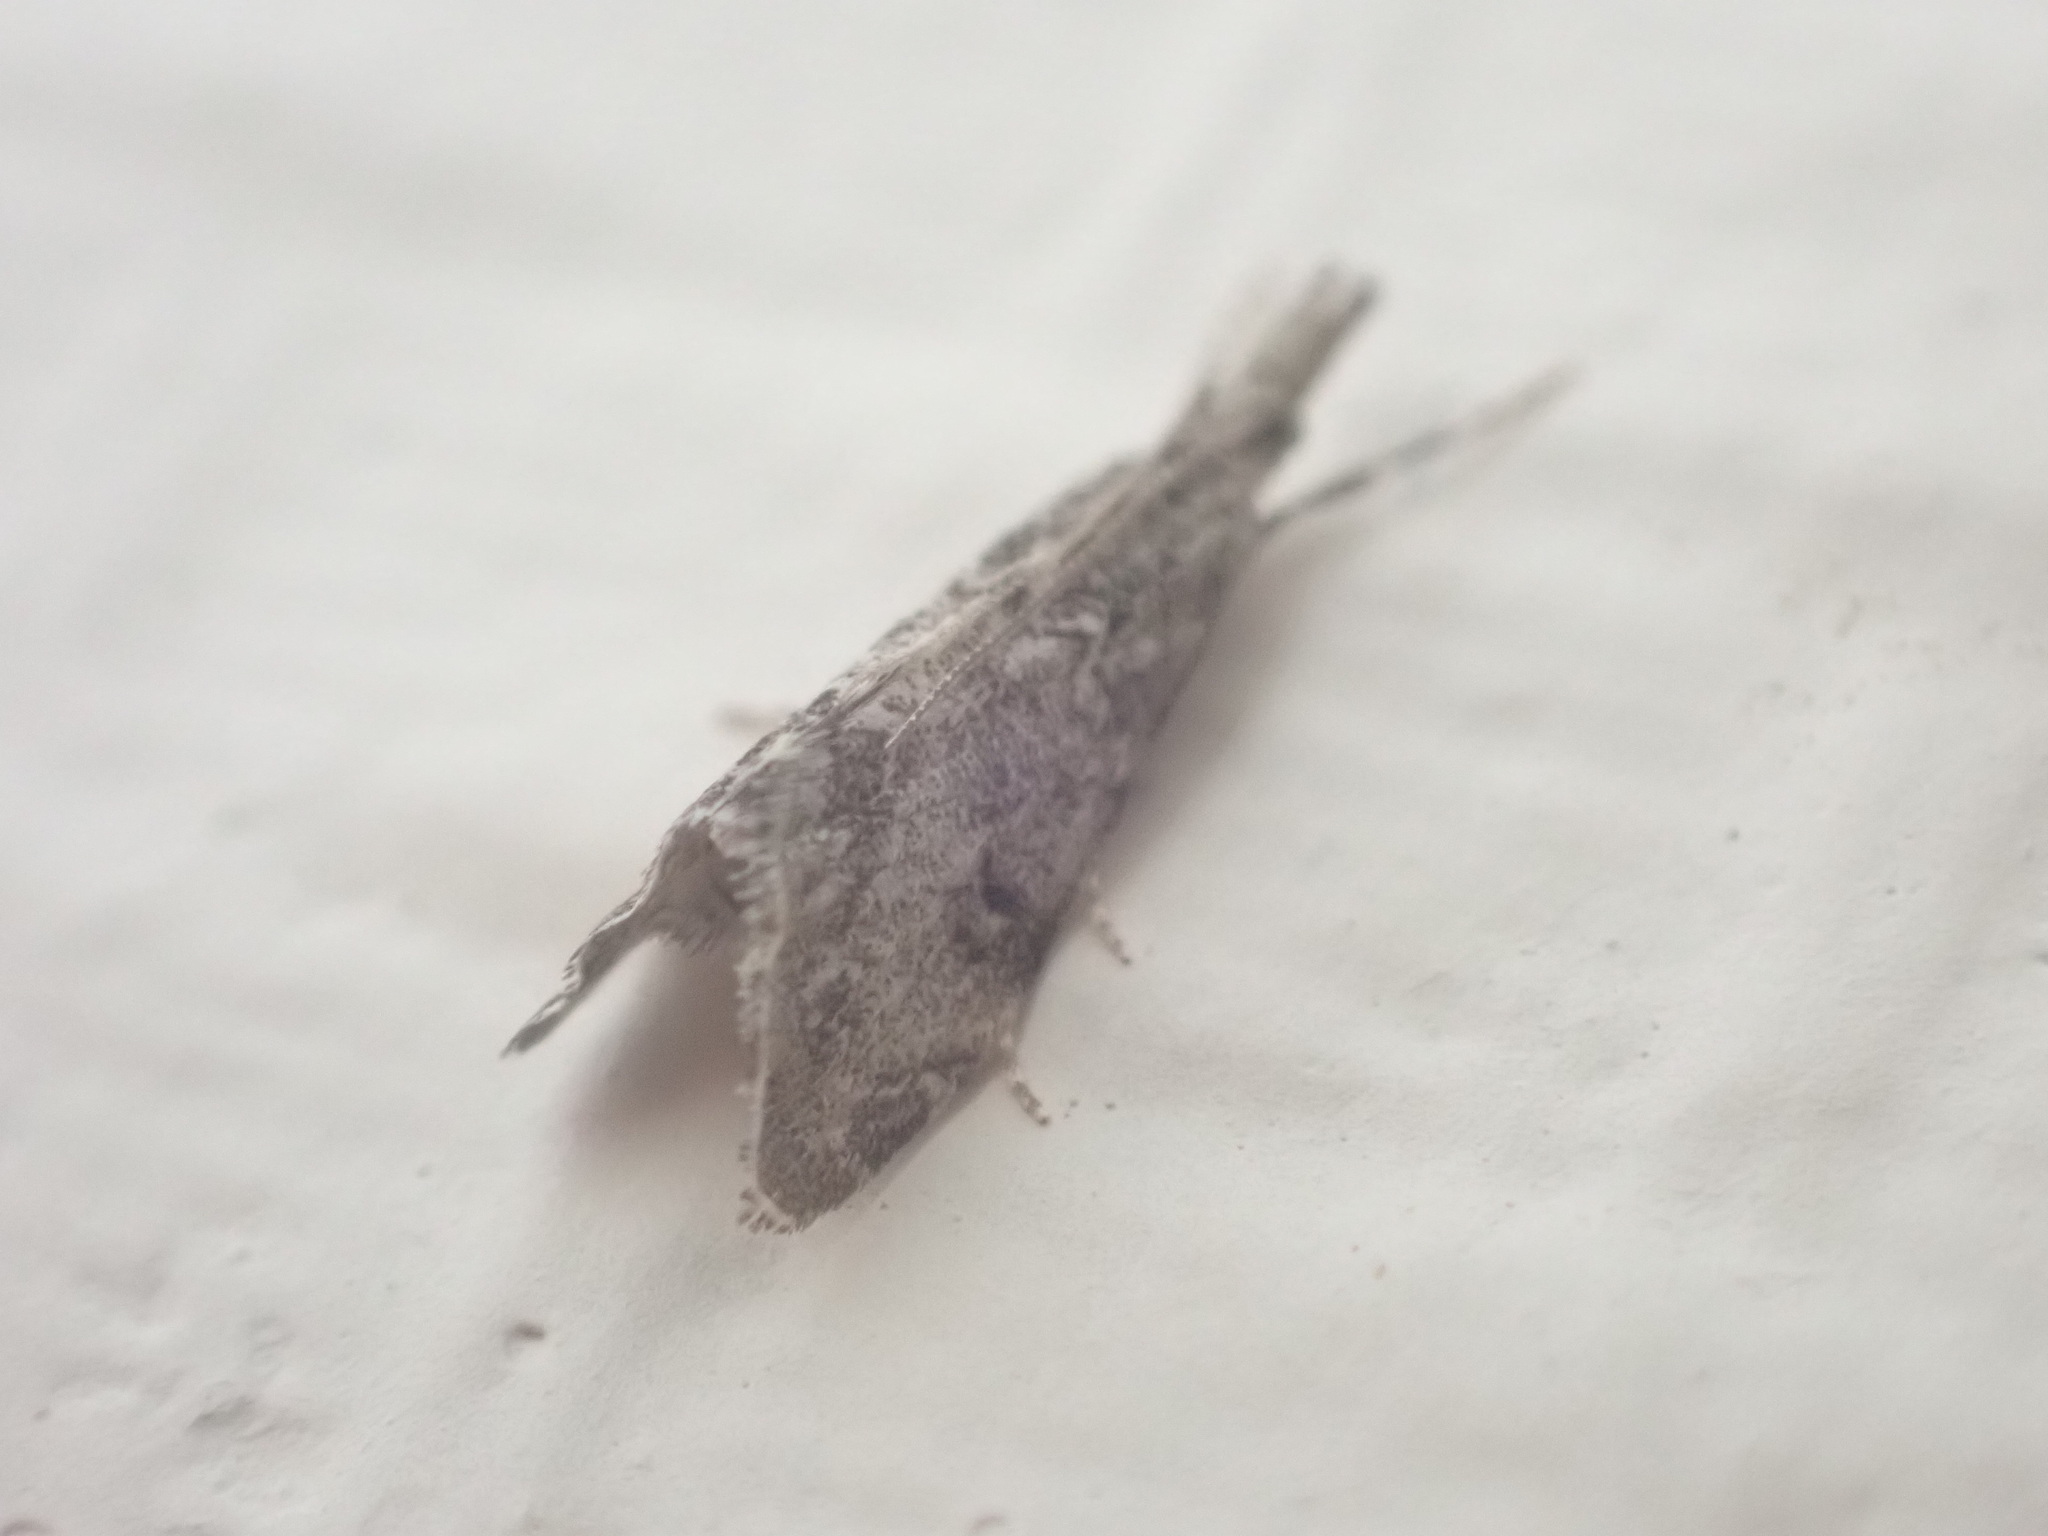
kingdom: Animalia
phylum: Arthropoda
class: Insecta
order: Lepidoptera
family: Crambidae
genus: Glaucocharis
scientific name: Glaucocharis elaina
